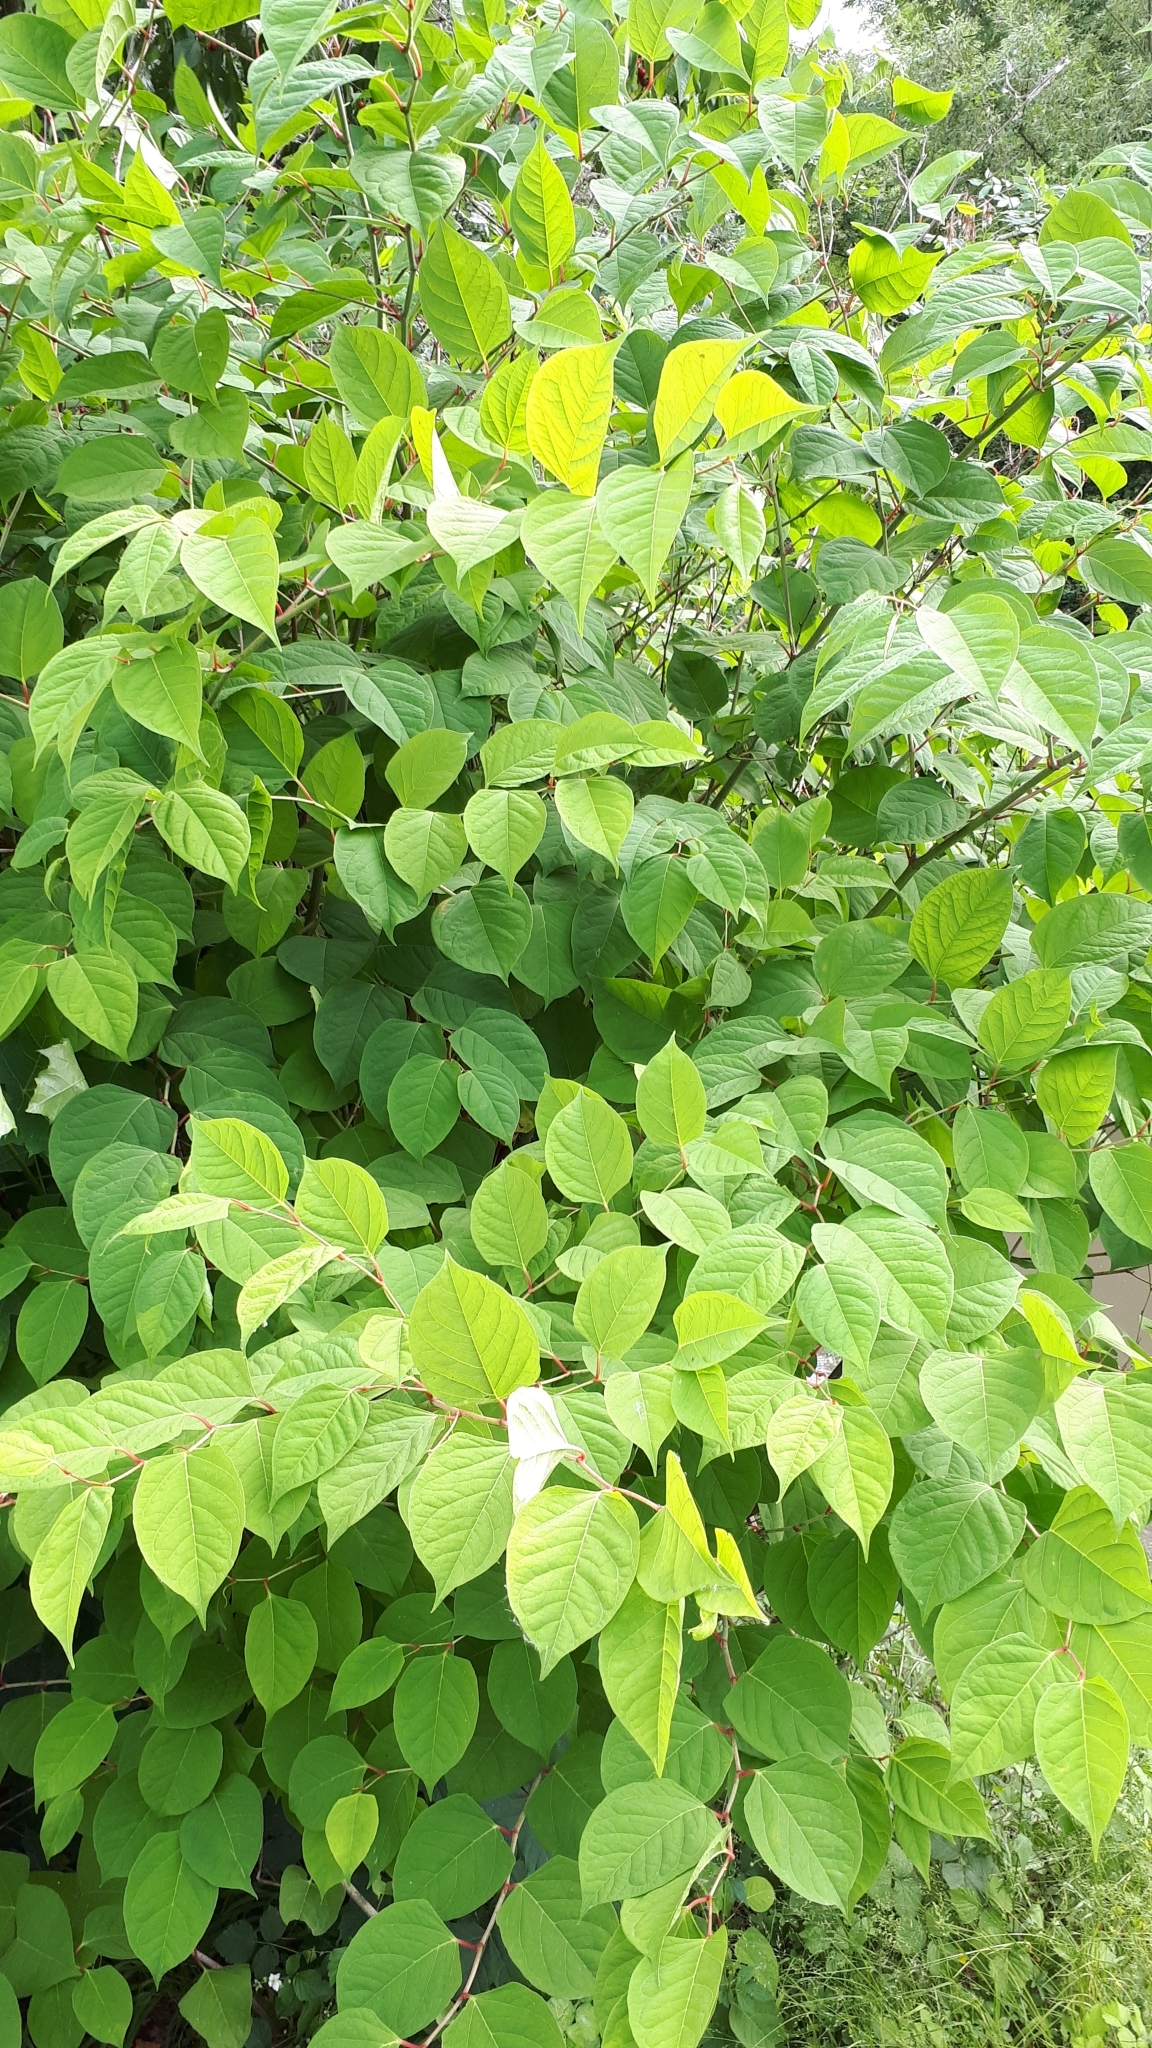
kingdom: Plantae
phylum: Tracheophyta
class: Magnoliopsida
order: Caryophyllales
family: Polygonaceae
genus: Reynoutria
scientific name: Reynoutria japonica
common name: Japanese knotweed
